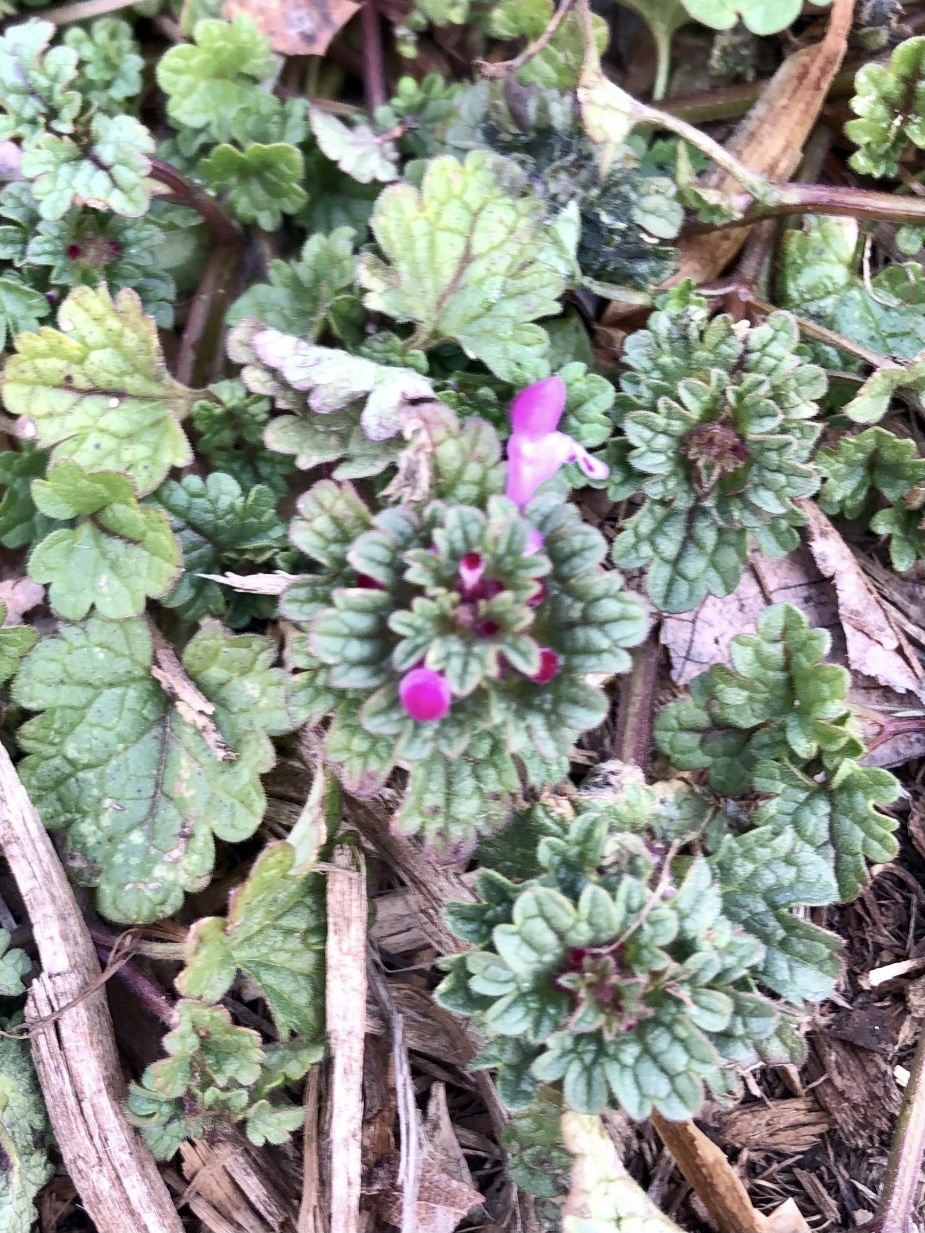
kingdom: Plantae
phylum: Tracheophyta
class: Magnoliopsida
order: Lamiales
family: Lamiaceae
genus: Lamium
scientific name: Lamium amplexicaule
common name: Henbit dead-nettle
